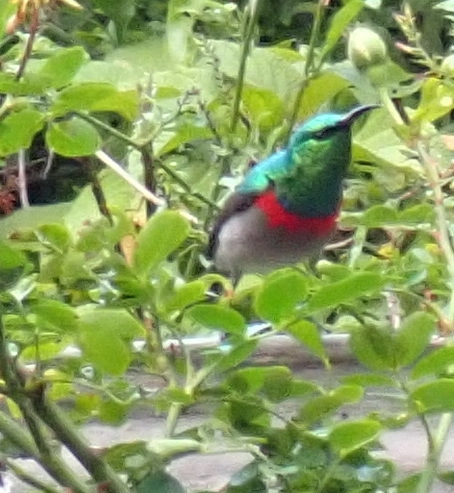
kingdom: Animalia
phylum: Chordata
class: Aves
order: Passeriformes
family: Nectariniidae
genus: Cinnyris
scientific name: Cinnyris chalybeus
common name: Southern double-collared sunbird
